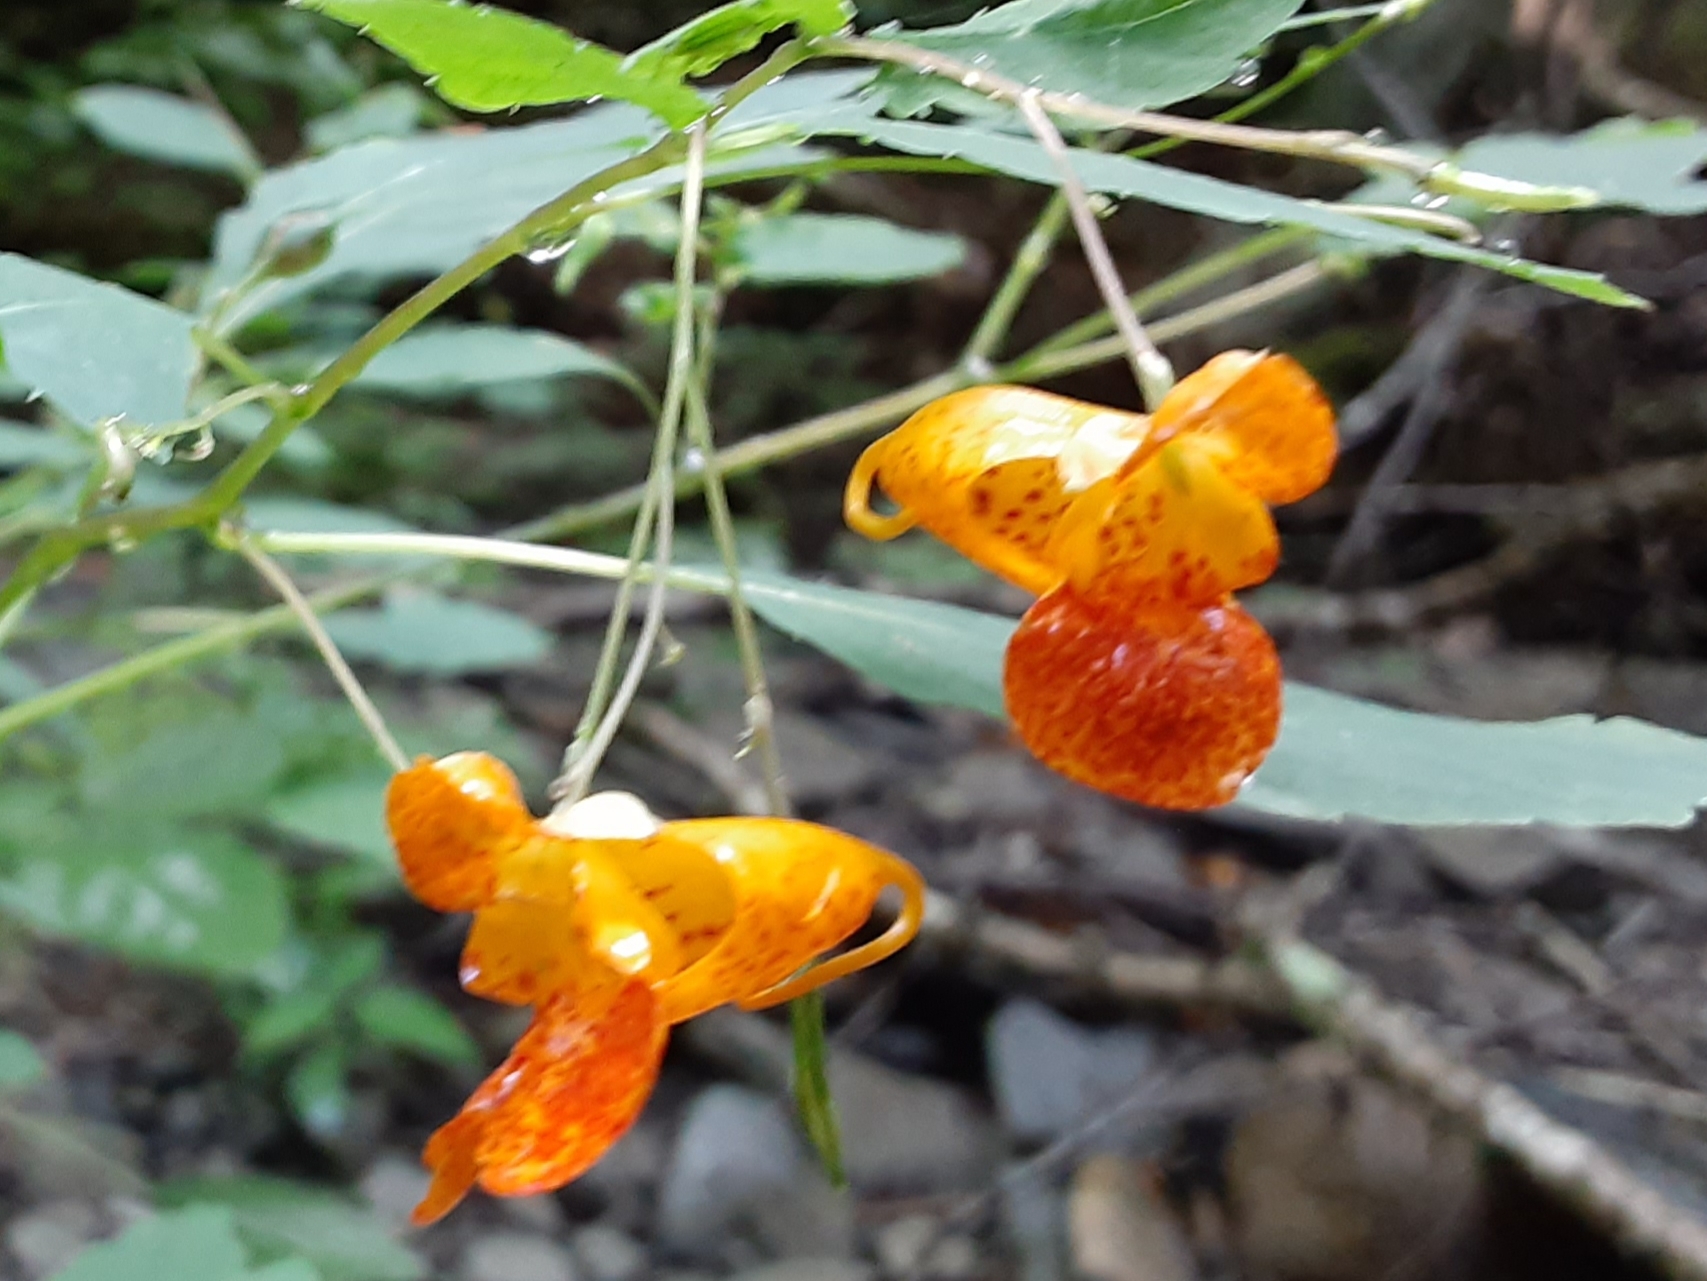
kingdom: Plantae
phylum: Tracheophyta
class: Magnoliopsida
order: Ericales
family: Balsaminaceae
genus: Impatiens
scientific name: Impatiens capensis
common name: Orange balsam
